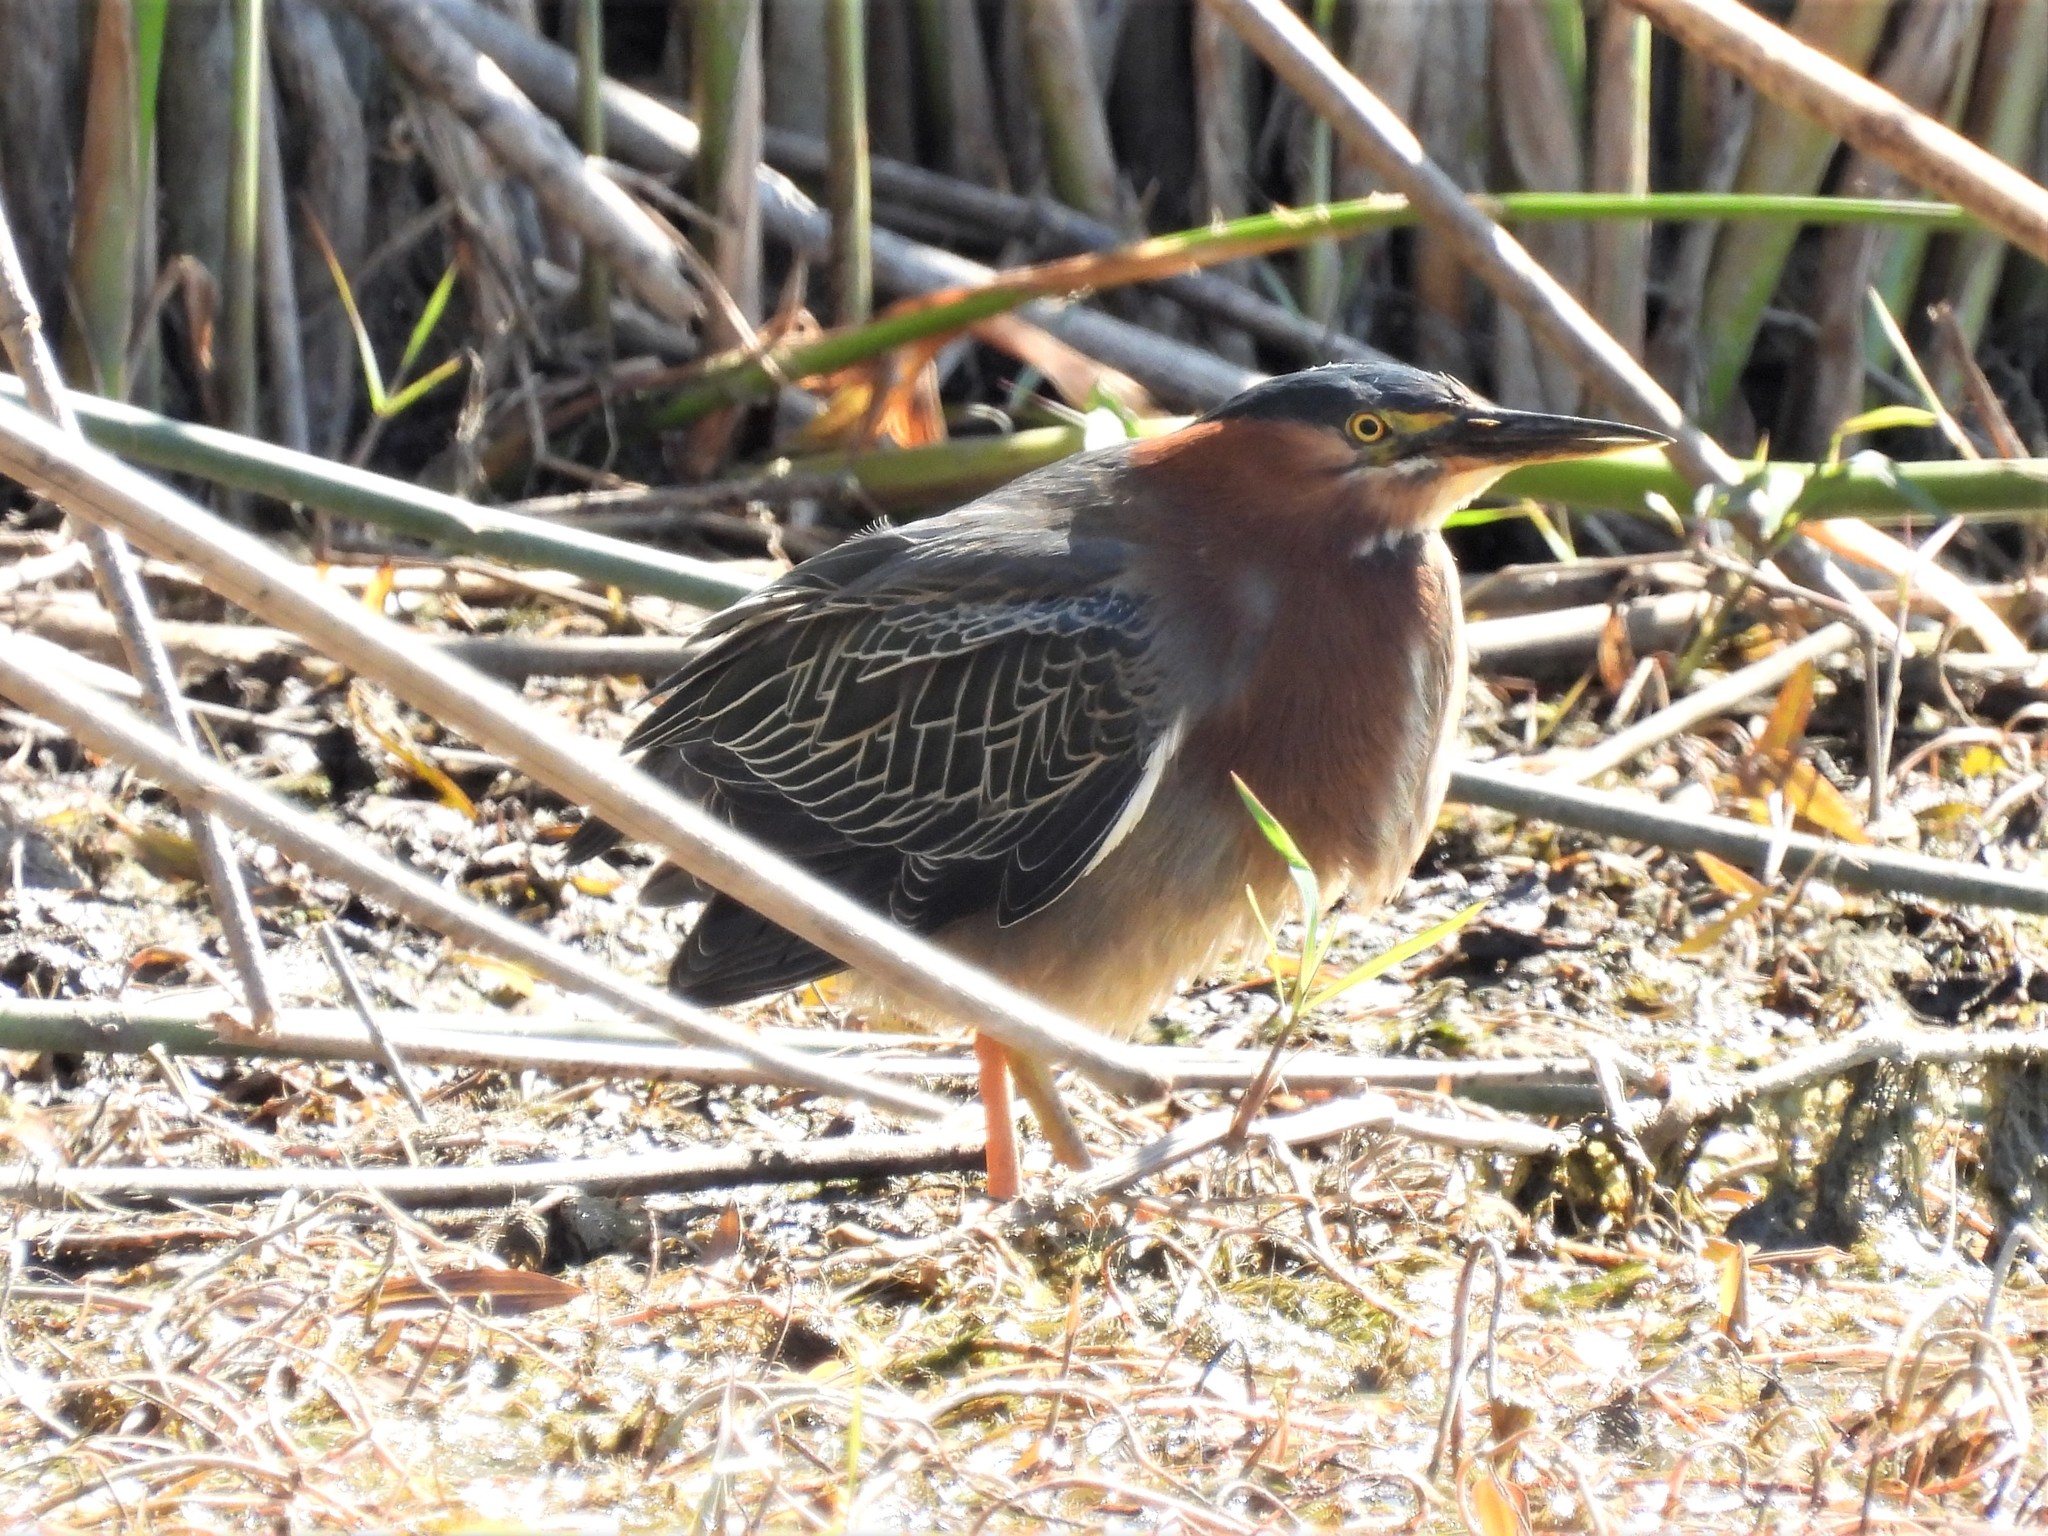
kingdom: Animalia
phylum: Chordata
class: Aves
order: Pelecaniformes
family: Ardeidae
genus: Butorides
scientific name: Butorides virescens
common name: Green heron
